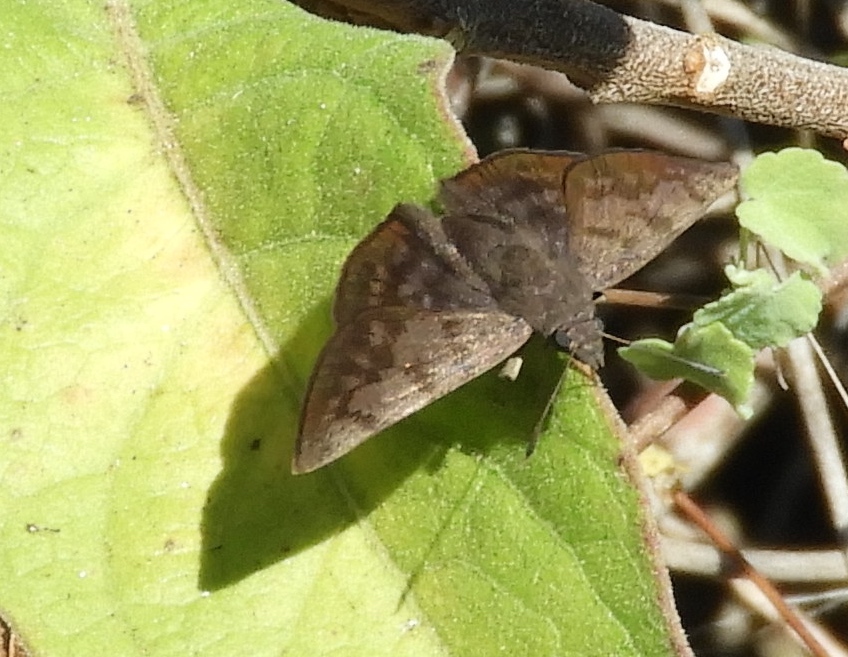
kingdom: Animalia
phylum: Arthropoda
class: Insecta
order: Lepidoptera
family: Hesperiidae
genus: Pellicia
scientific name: Pellicia dimidiata
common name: Morning glory pellicia
